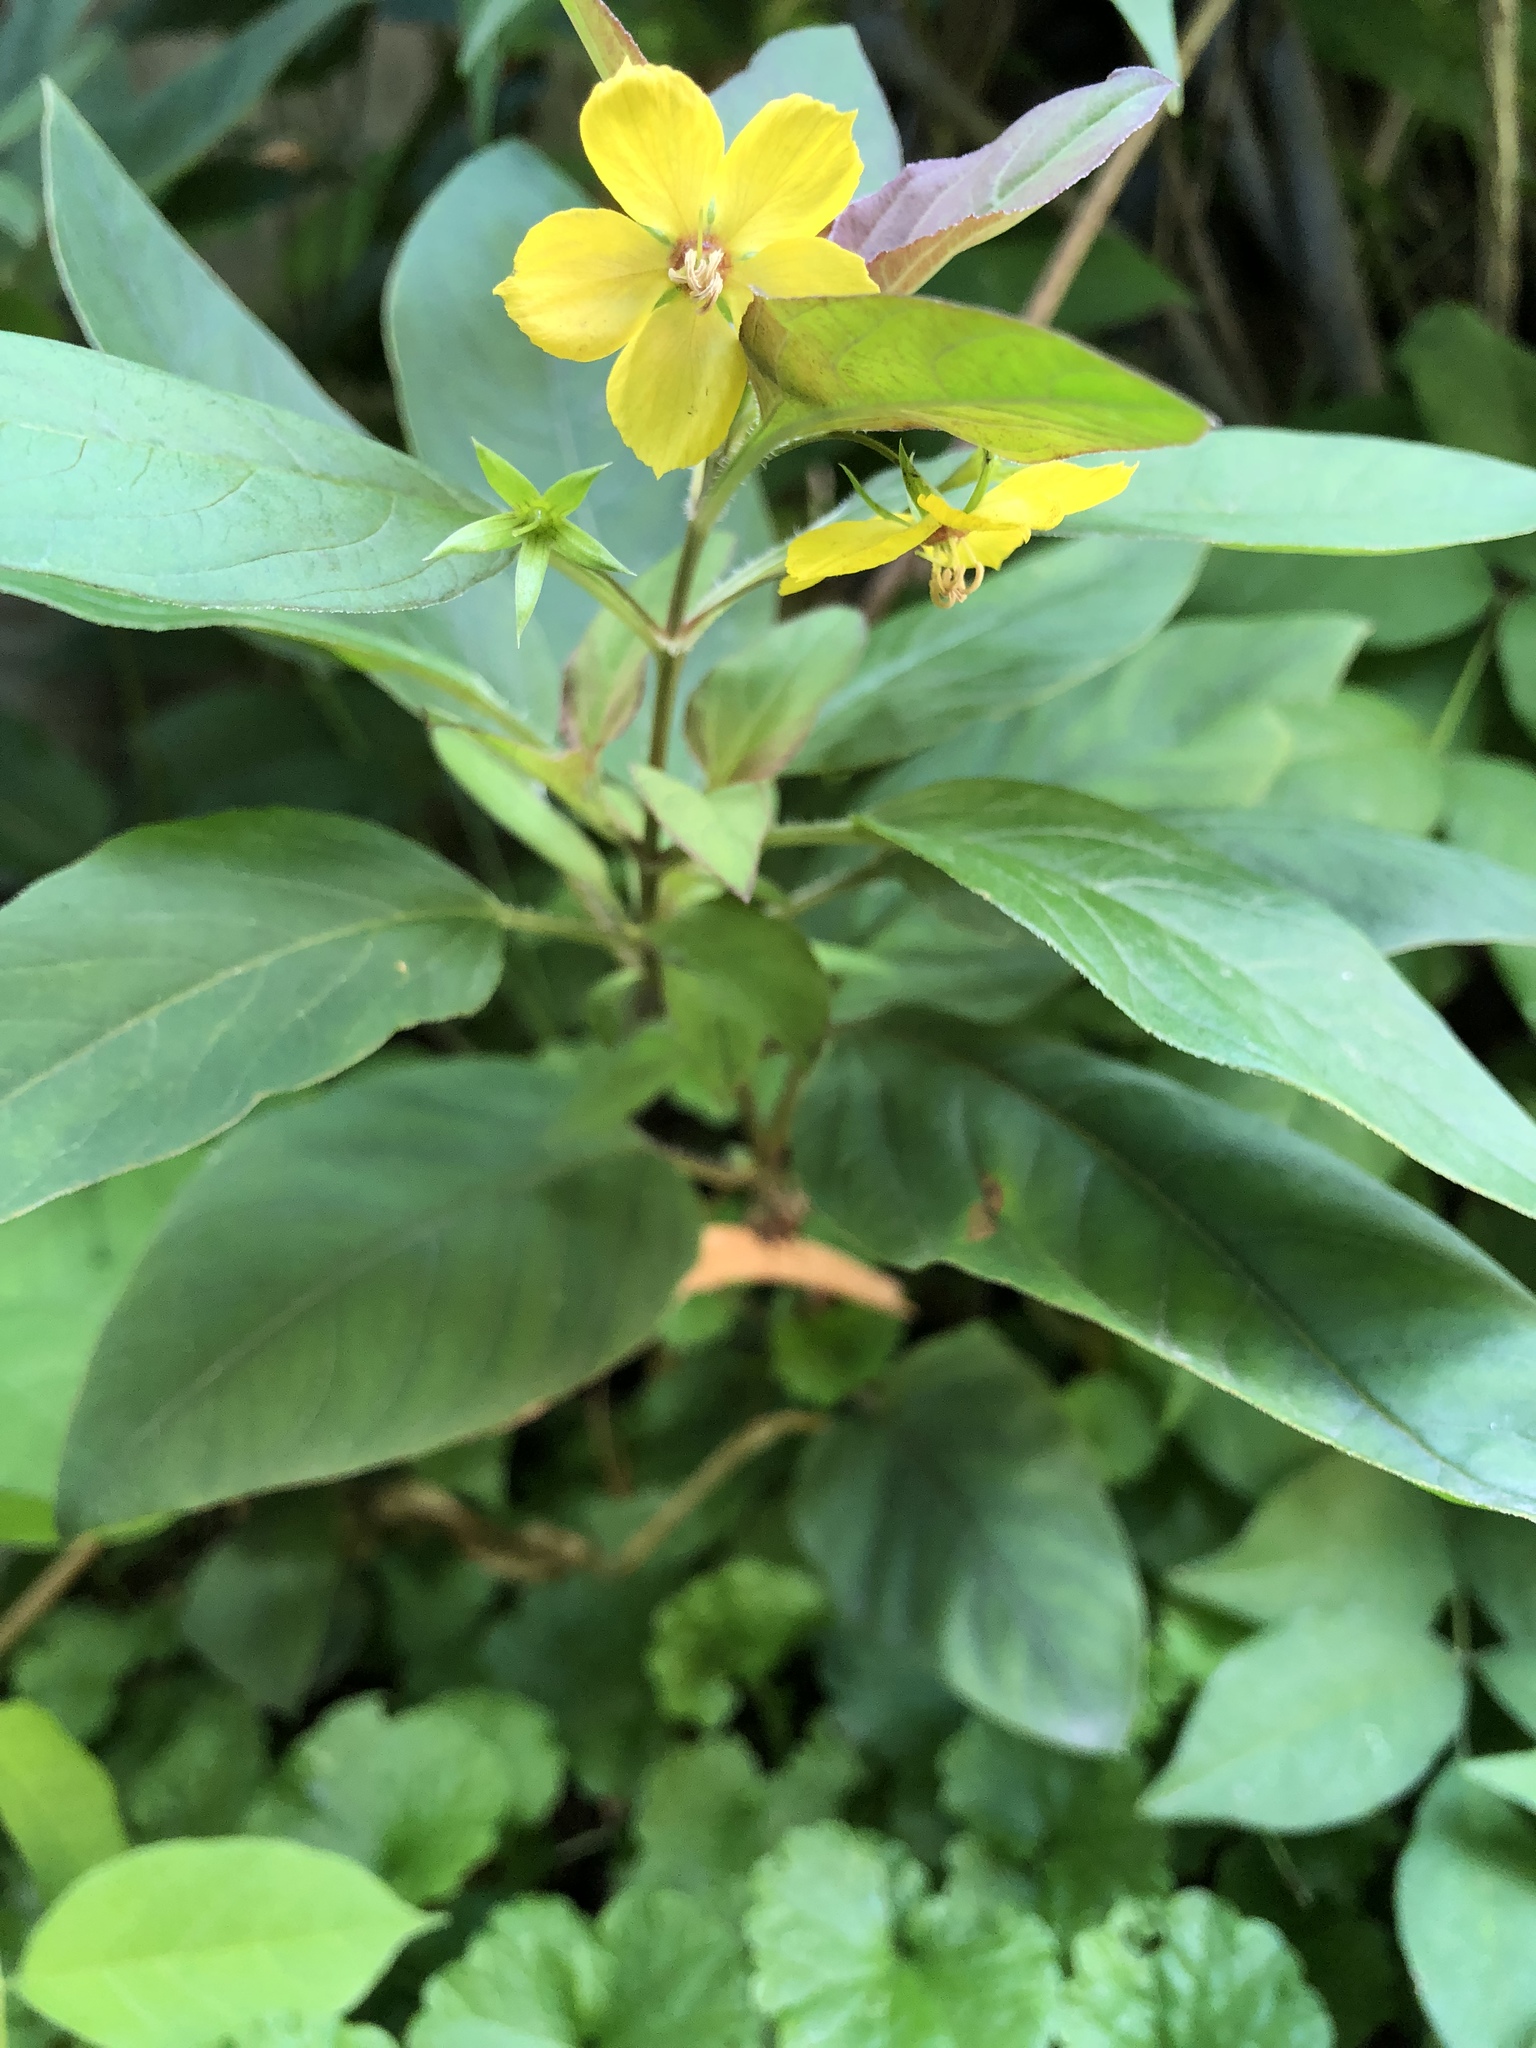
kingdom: Plantae
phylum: Tracheophyta
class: Magnoliopsida
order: Ericales
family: Primulaceae
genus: Lysimachia
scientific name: Lysimachia ciliata
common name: Fringed loosestrife
